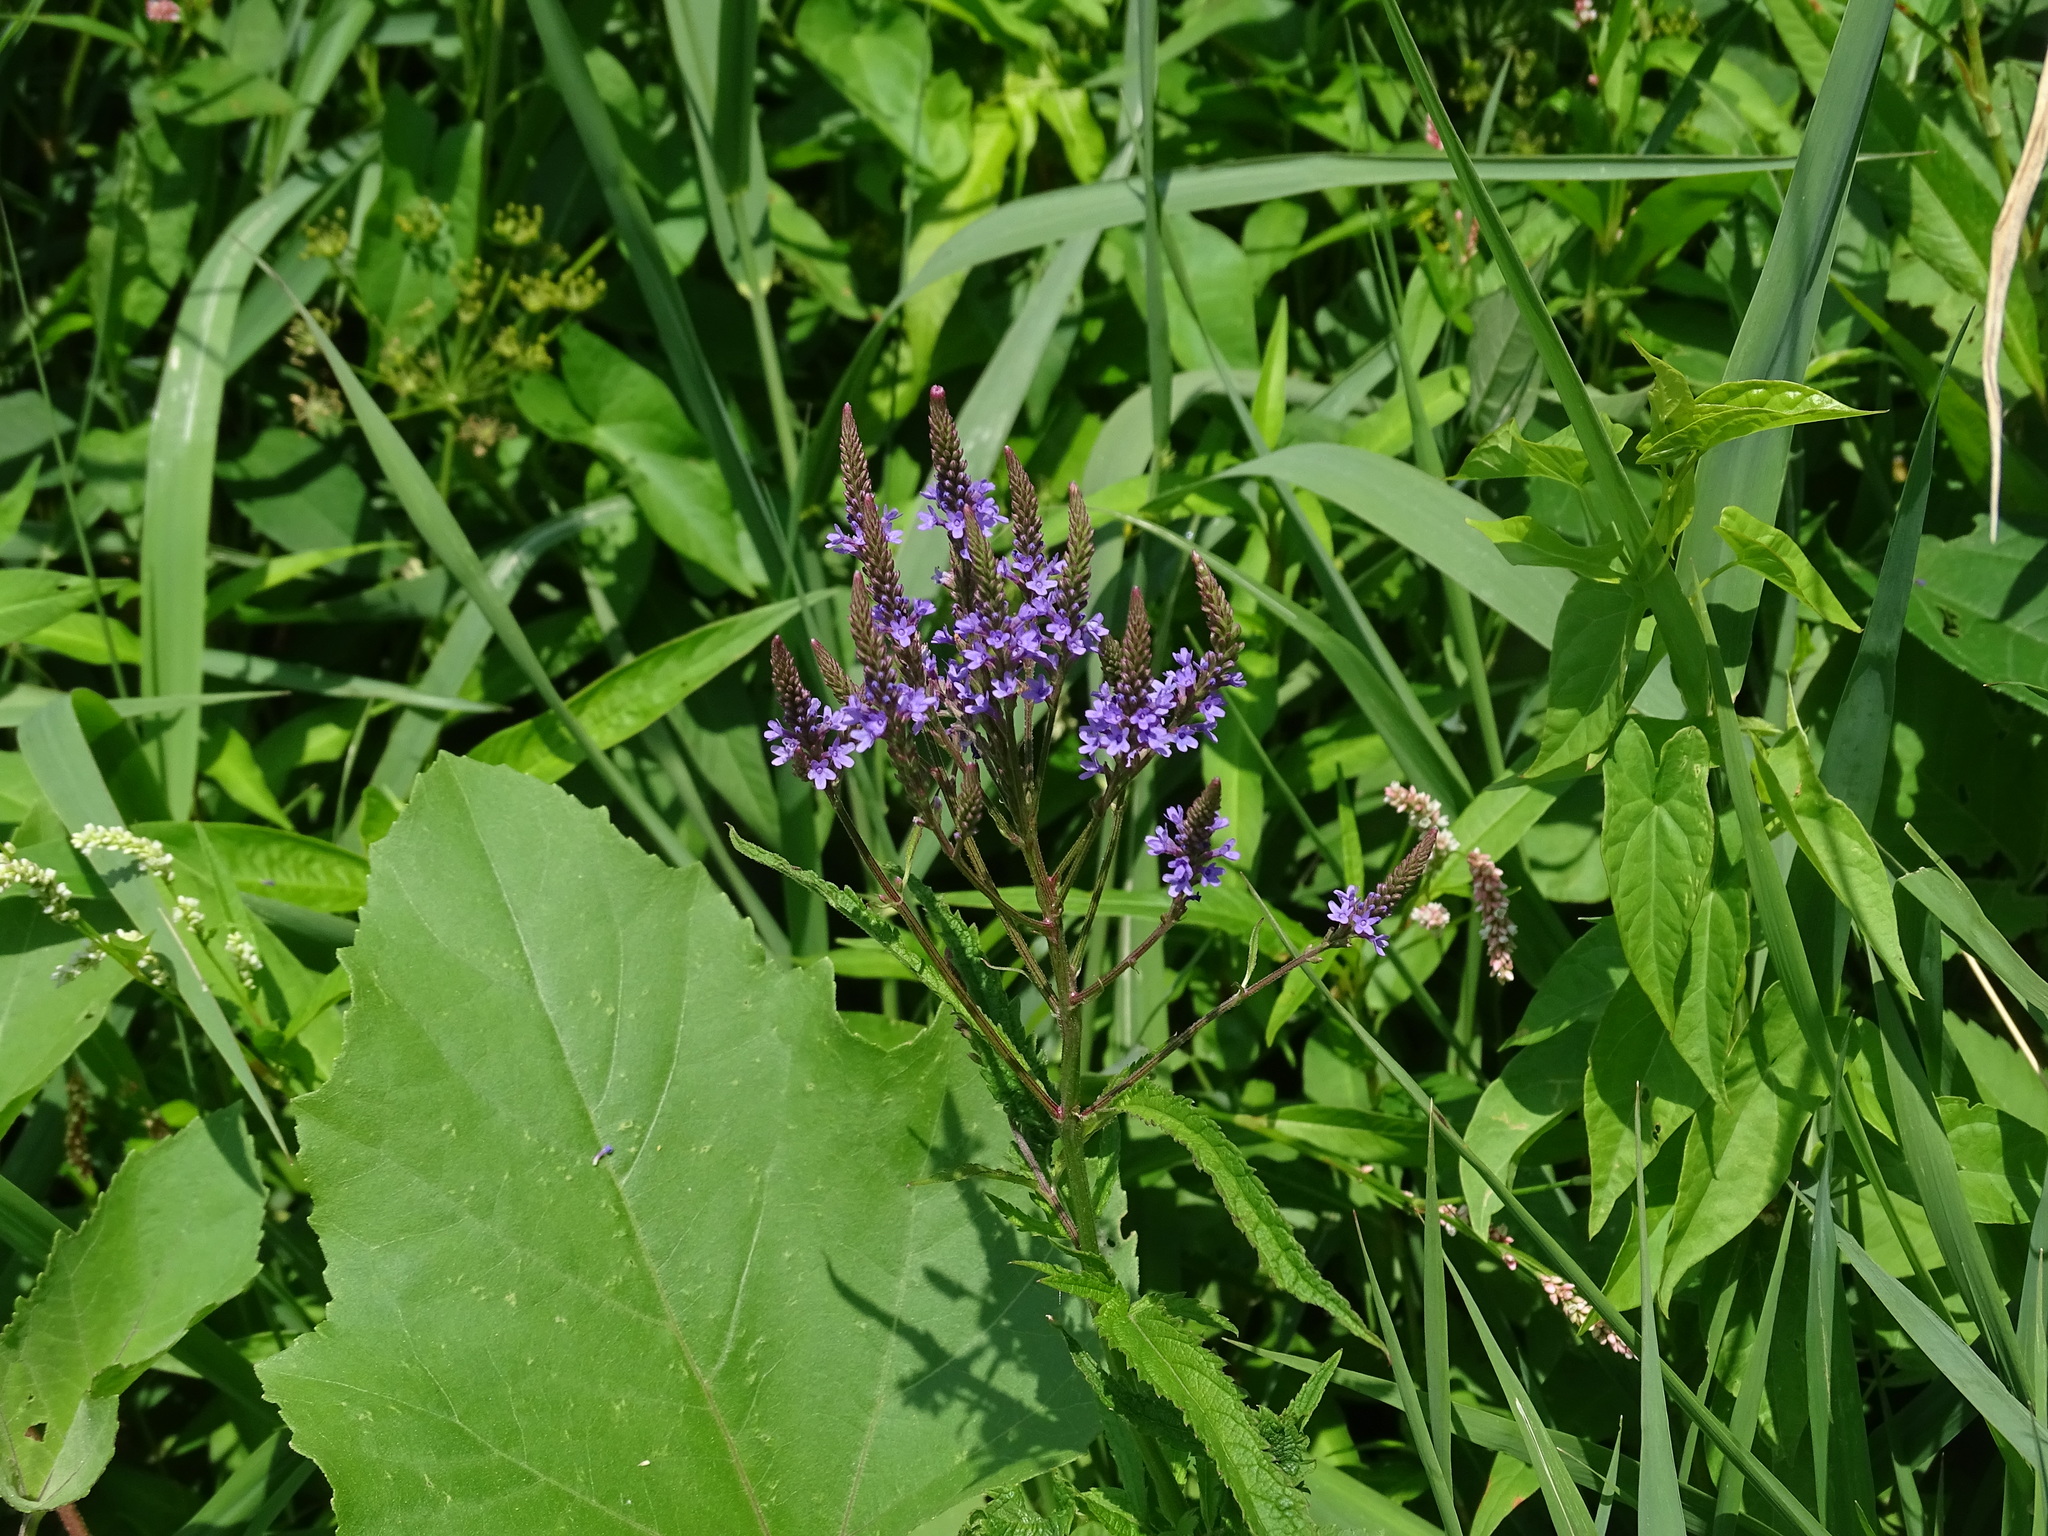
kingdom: Plantae
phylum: Tracheophyta
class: Magnoliopsida
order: Lamiales
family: Verbenaceae
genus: Verbena
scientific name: Verbena hastata
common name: American blue vervain
